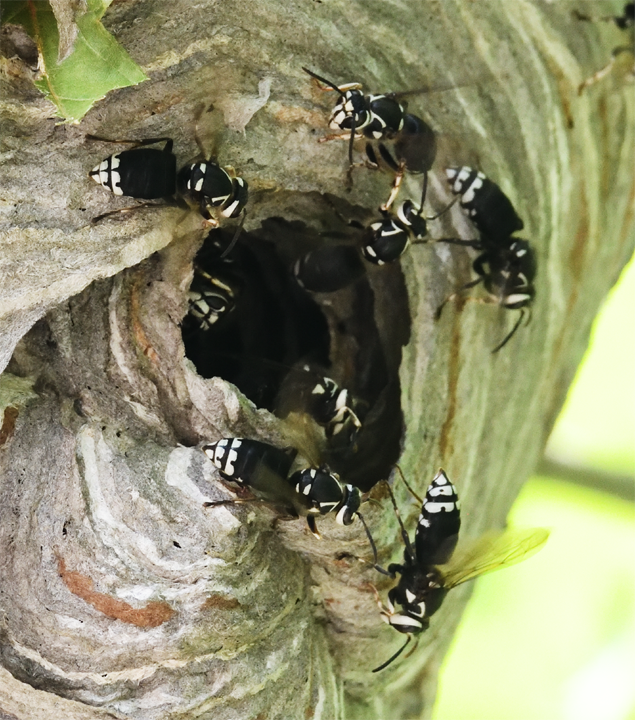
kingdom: Animalia
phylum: Arthropoda
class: Insecta
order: Hymenoptera
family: Vespidae
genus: Dolichovespula
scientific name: Dolichovespula maculata
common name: Bald-faced hornet
